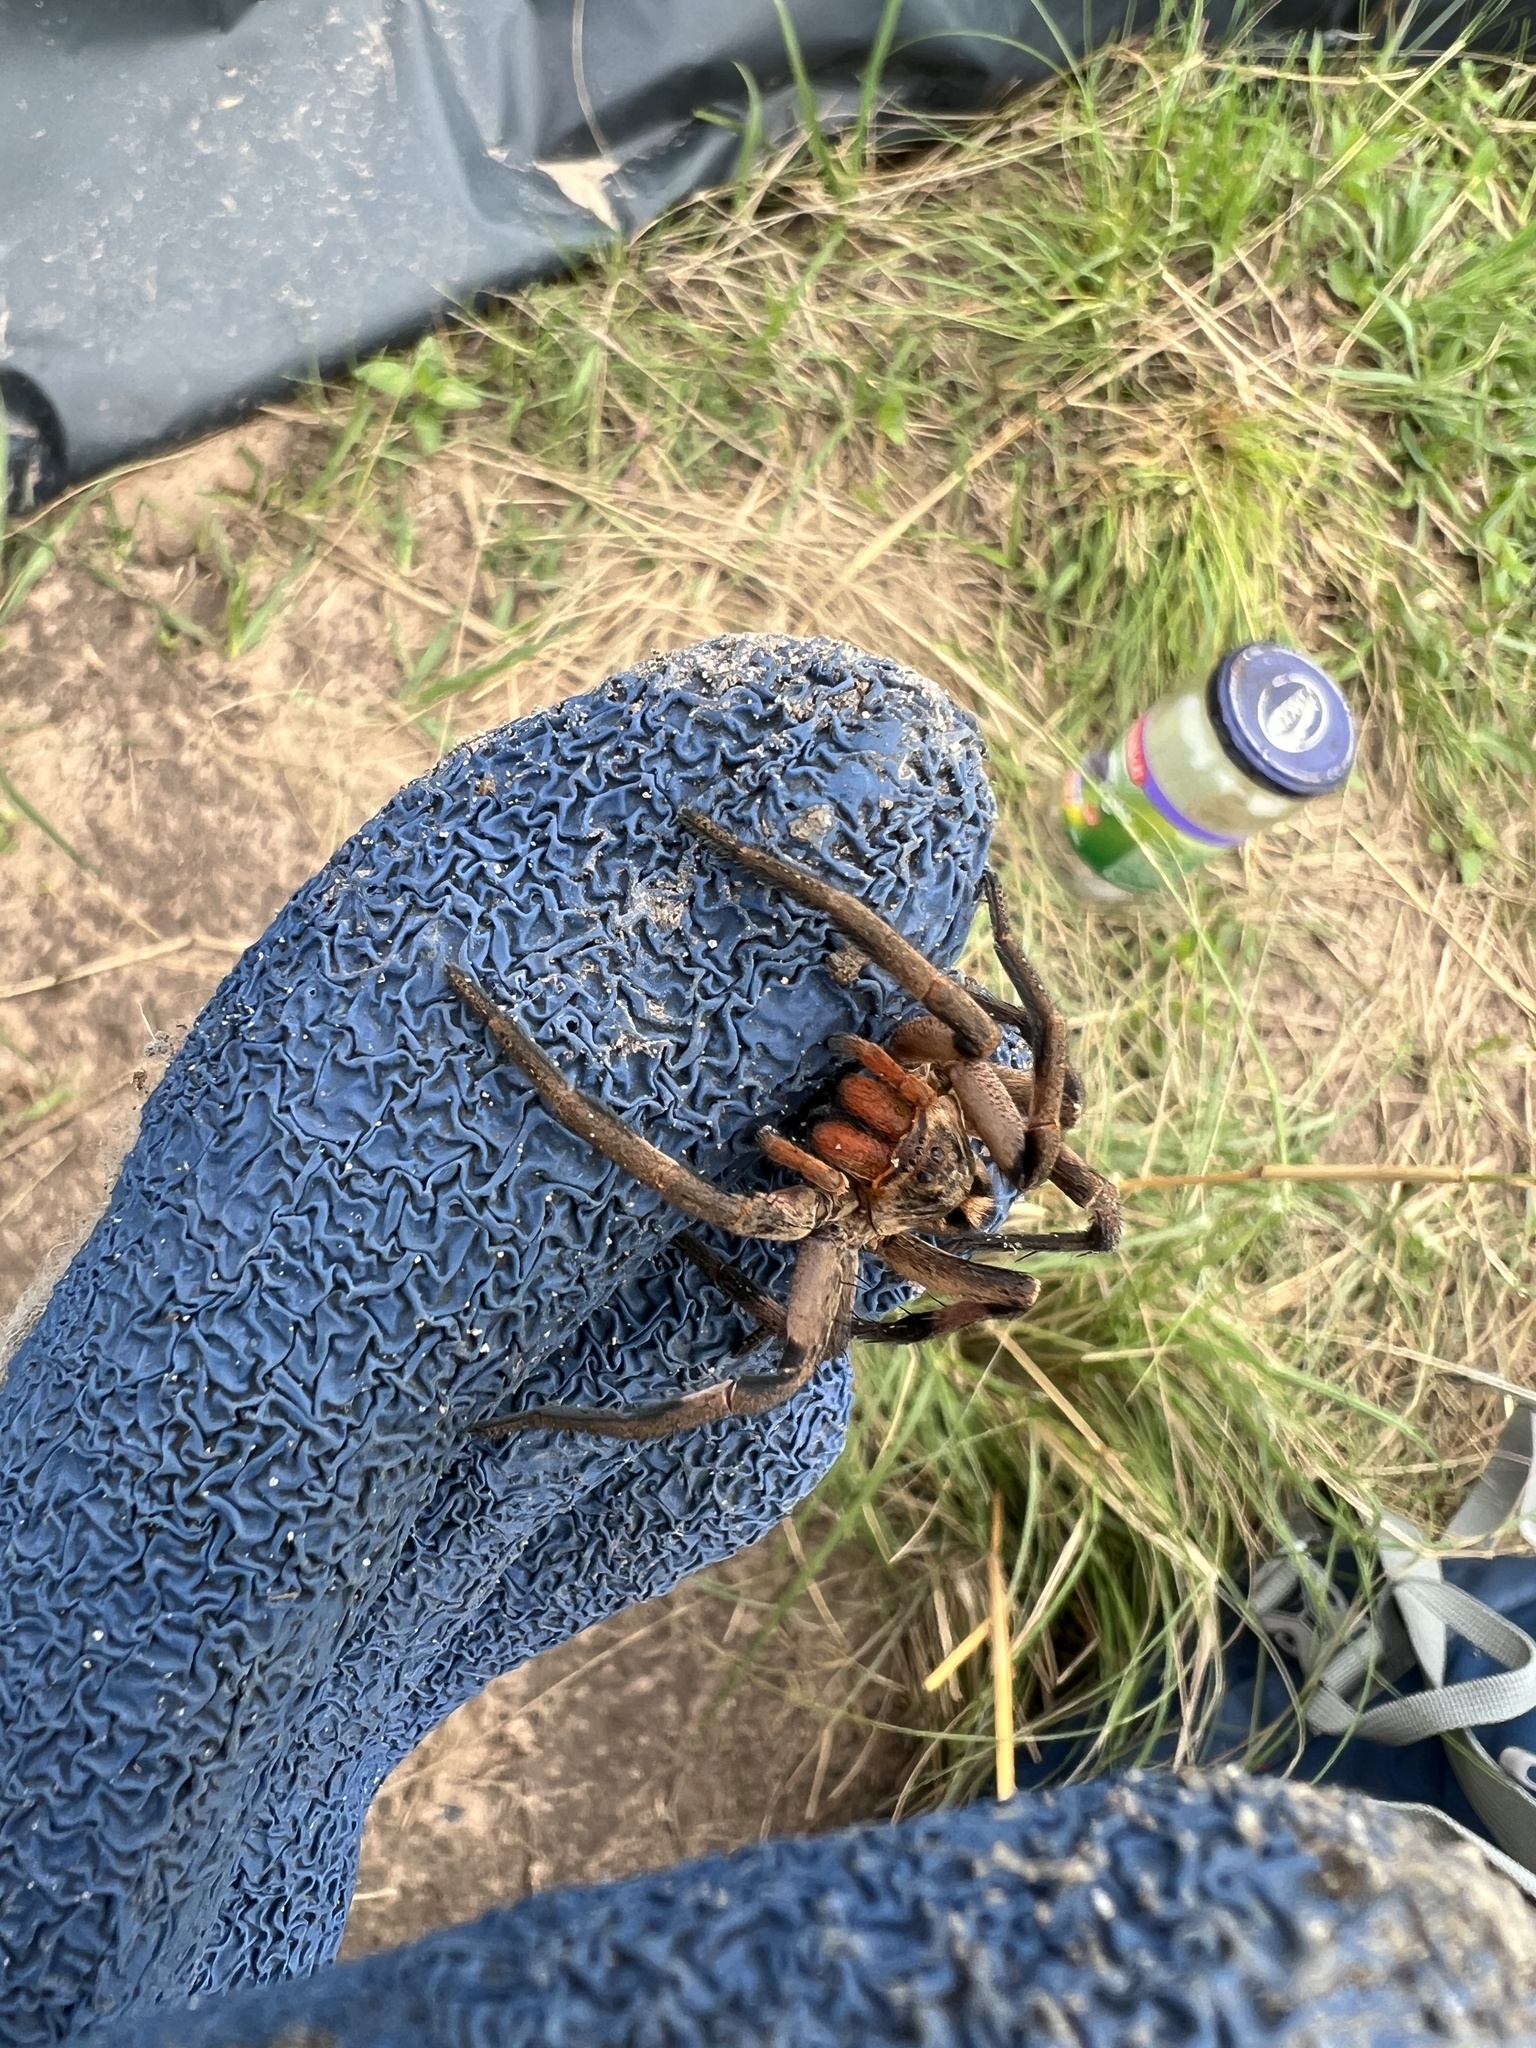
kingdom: Animalia
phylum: Arthropoda
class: Arachnida
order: Araneae
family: Lycosidae
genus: Lycosa
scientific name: Lycosa erythrognatha
